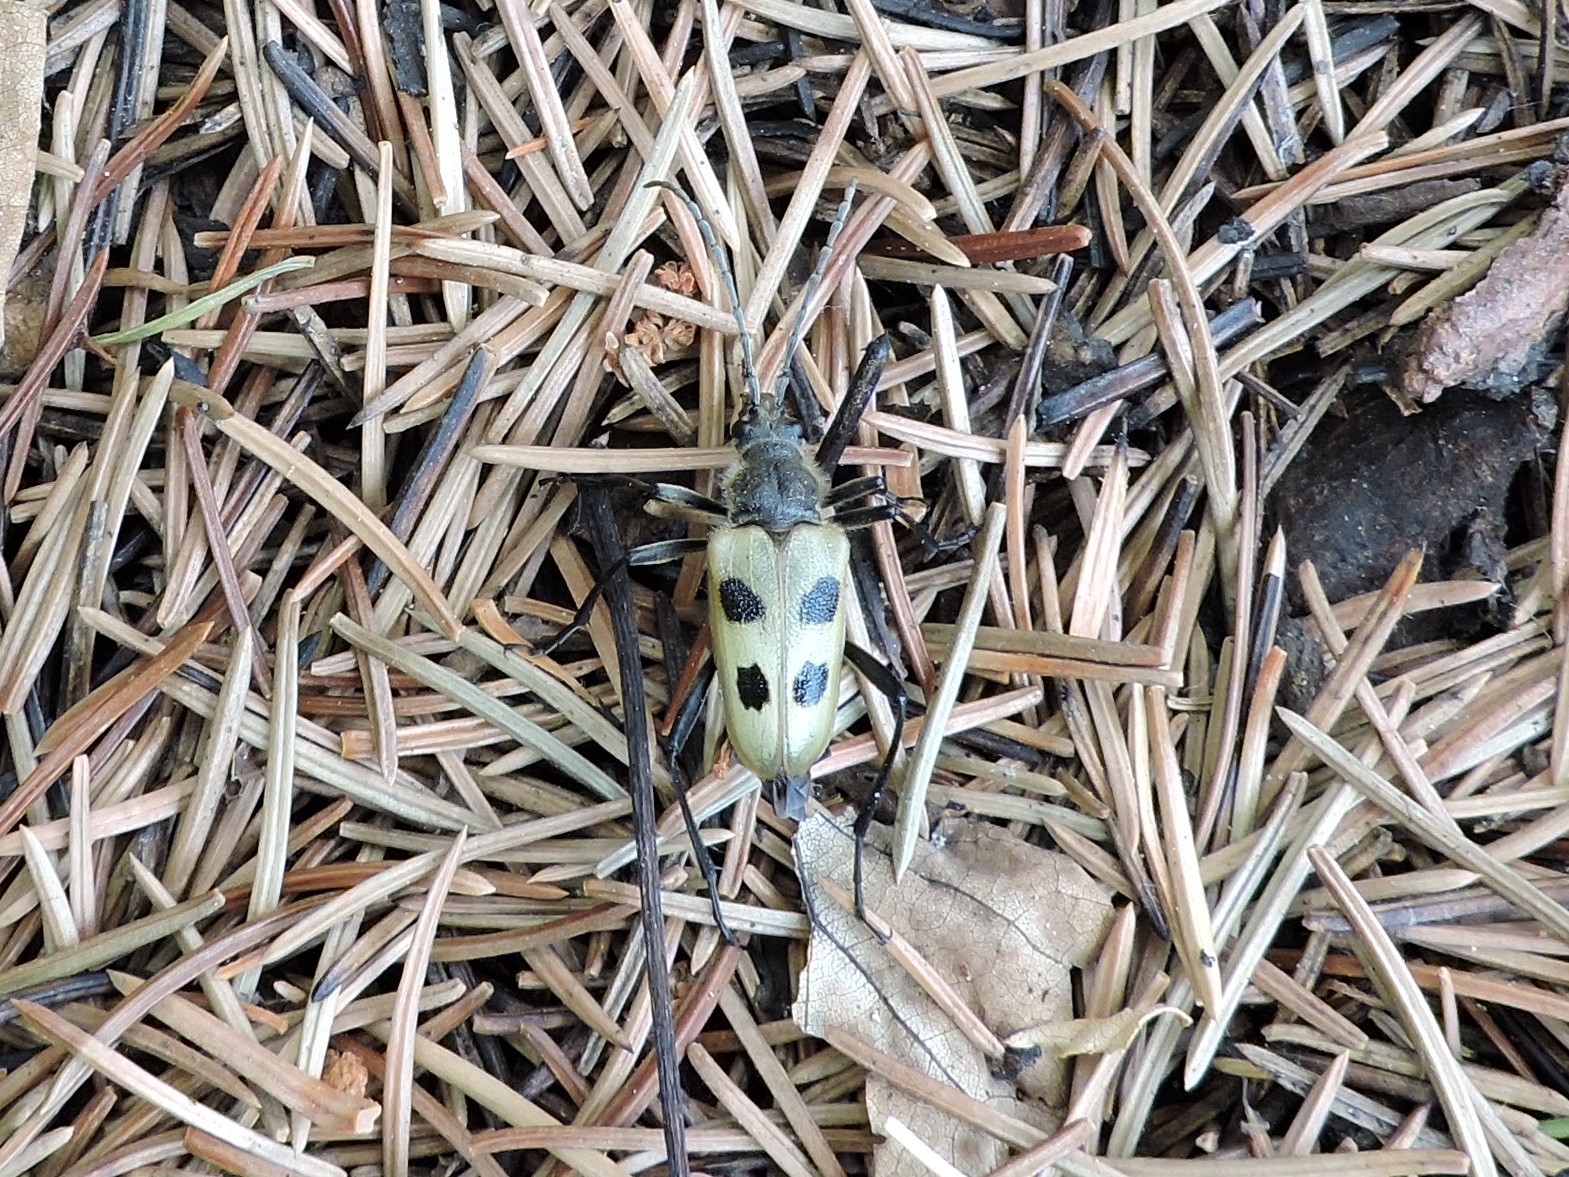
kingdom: Animalia
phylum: Arthropoda
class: Insecta
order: Coleoptera
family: Cerambycidae
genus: Pachyta
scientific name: Pachyta quadrimaculata
